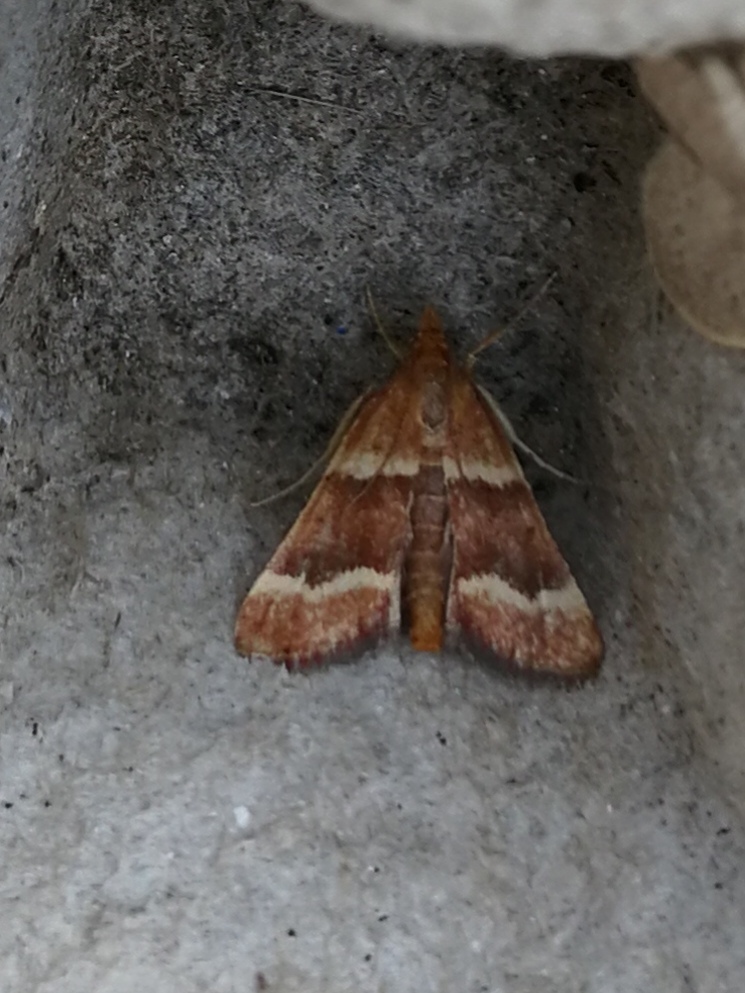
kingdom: Animalia
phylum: Arthropoda
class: Insecta
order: Lepidoptera
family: Pyralidae
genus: Stemmatophora
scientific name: Stemmatophora combustalis
